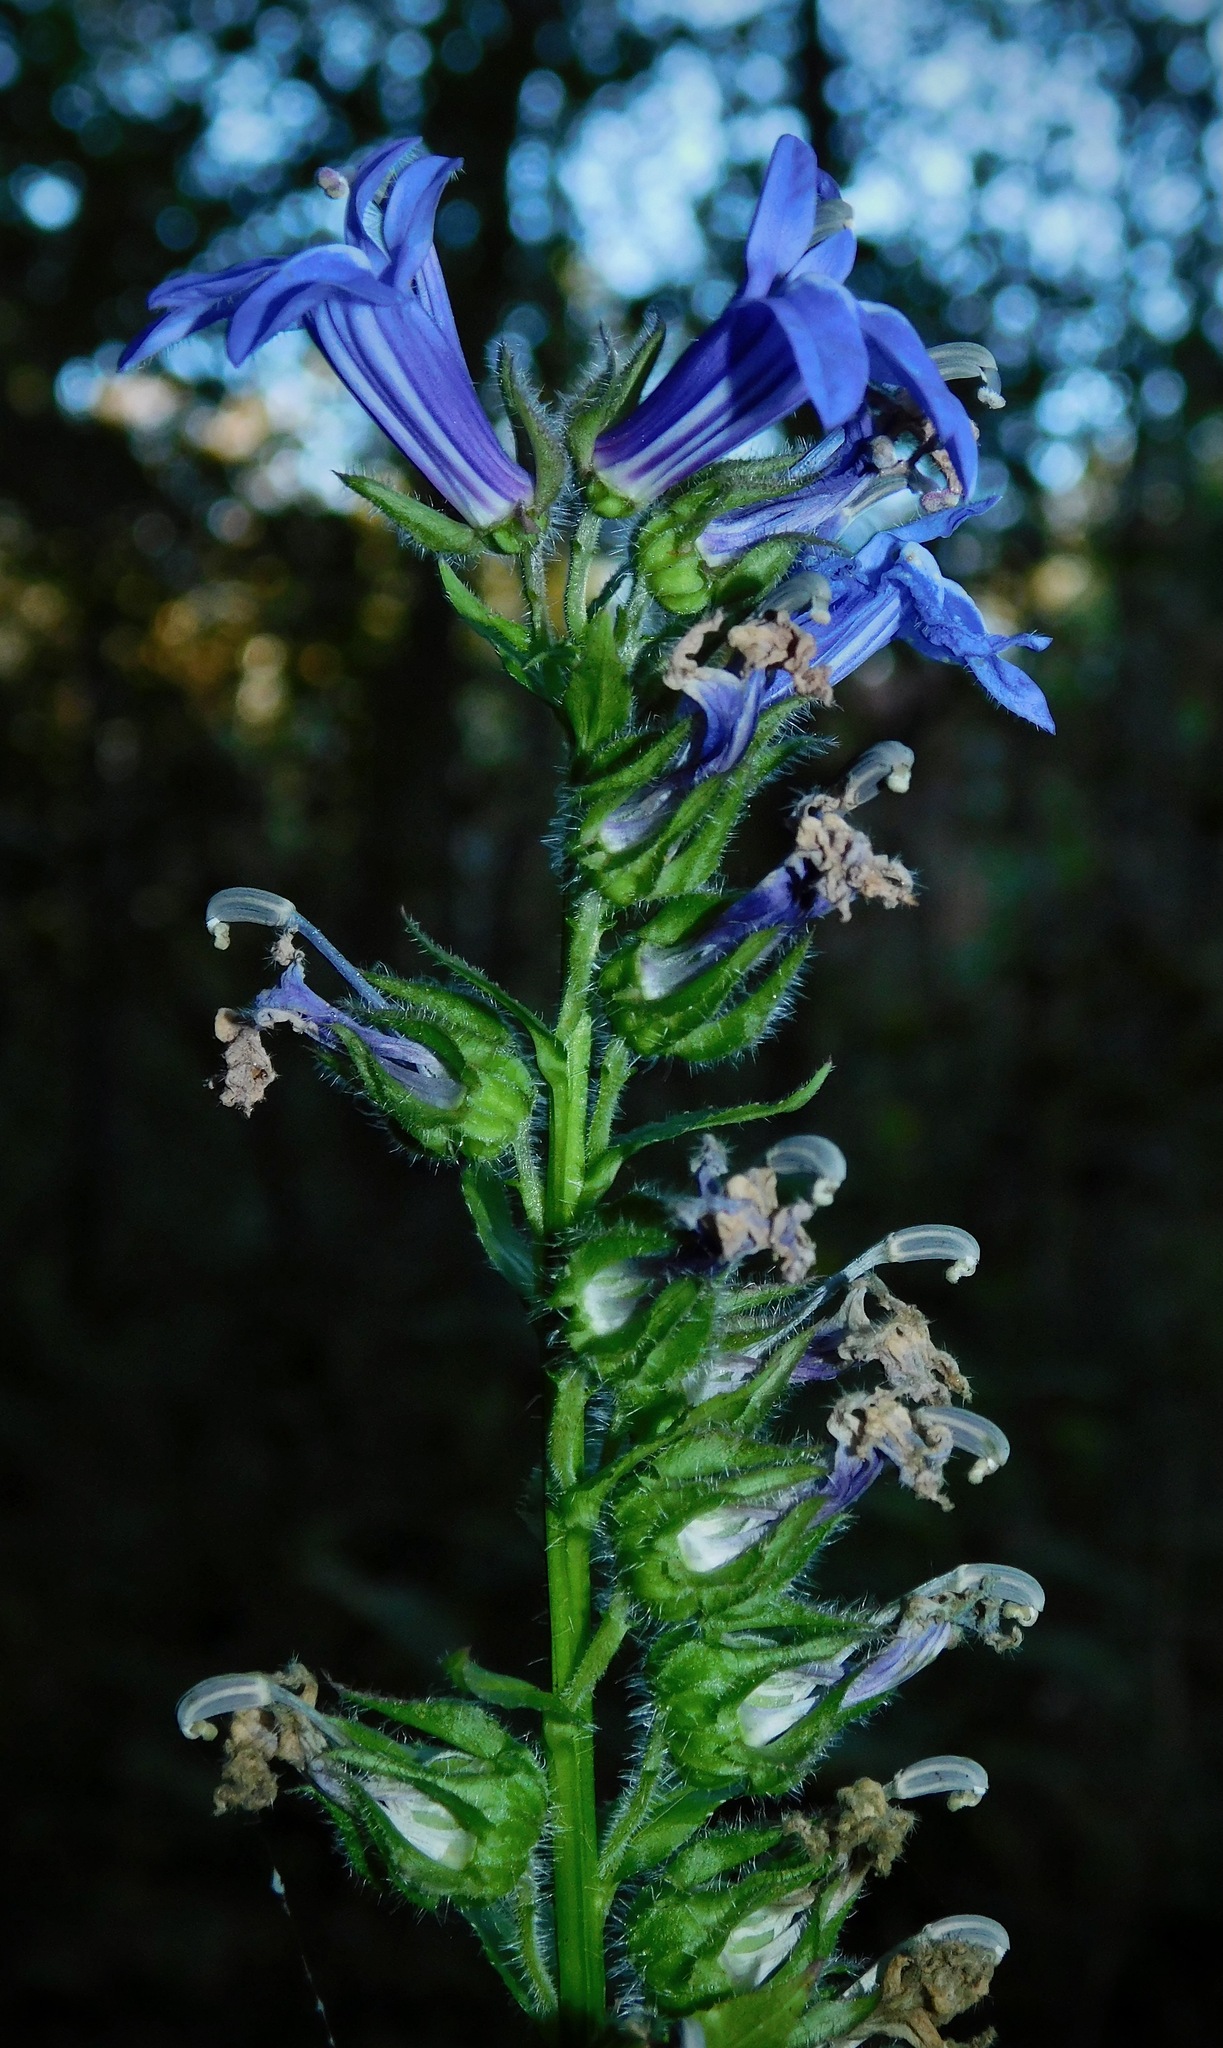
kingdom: Plantae
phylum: Tracheophyta
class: Magnoliopsida
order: Asterales
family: Campanulaceae
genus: Lobelia
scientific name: Lobelia siphilitica
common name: Great lobelia
